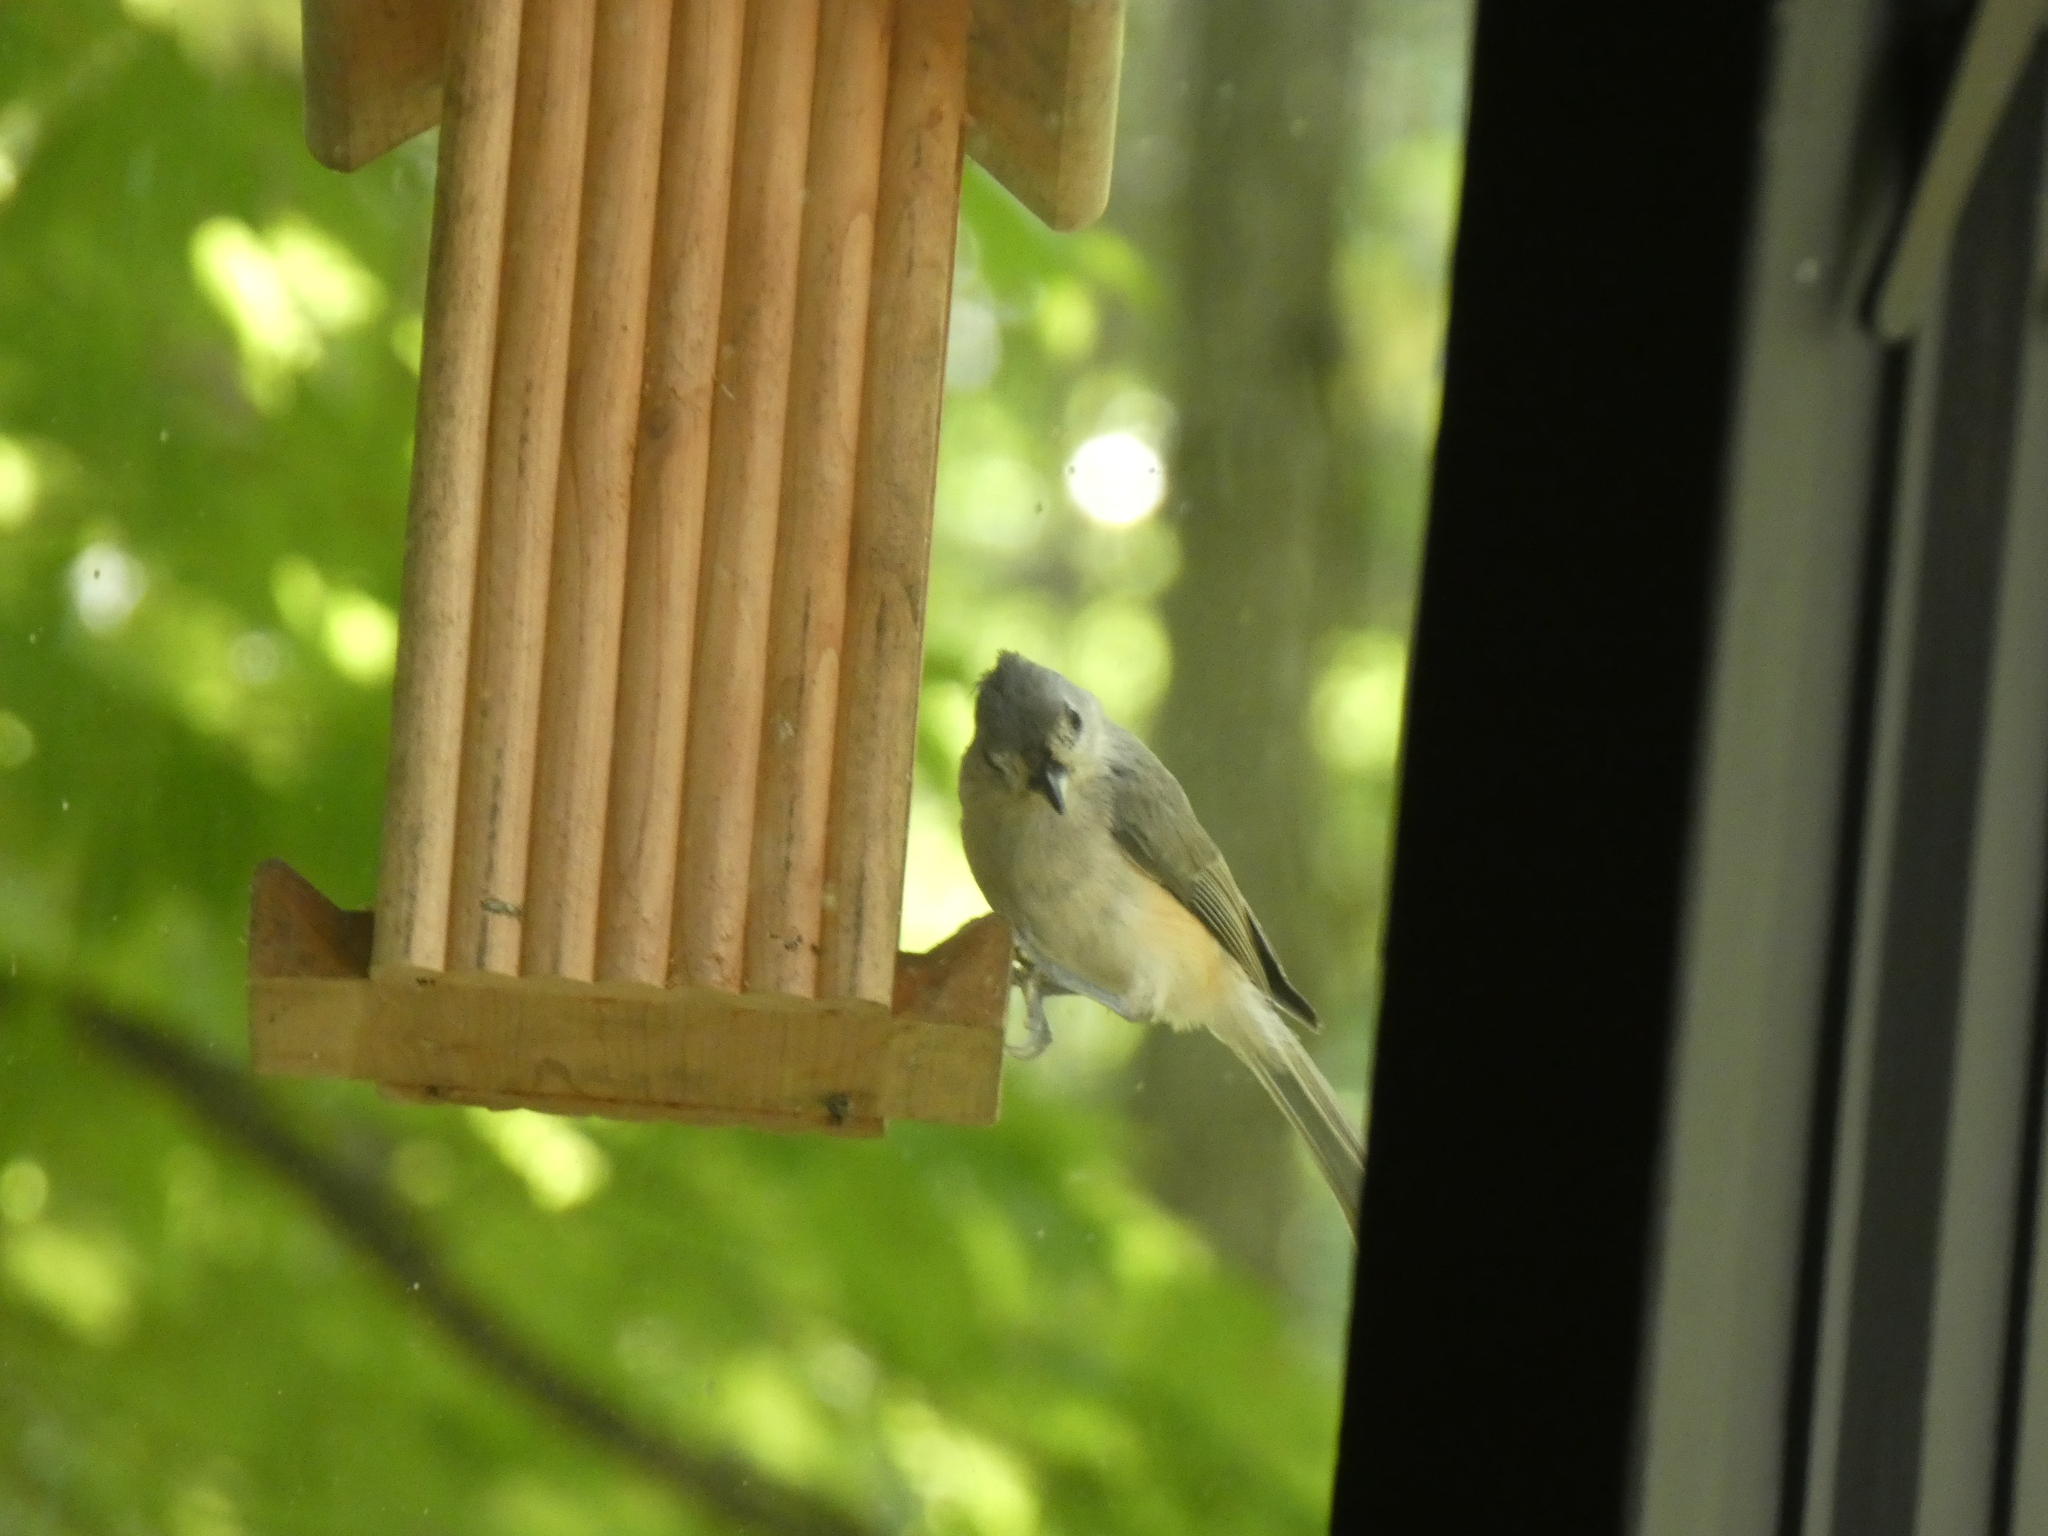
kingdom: Animalia
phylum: Chordata
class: Aves
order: Passeriformes
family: Paridae
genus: Baeolophus
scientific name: Baeolophus bicolor
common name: Tufted titmouse
